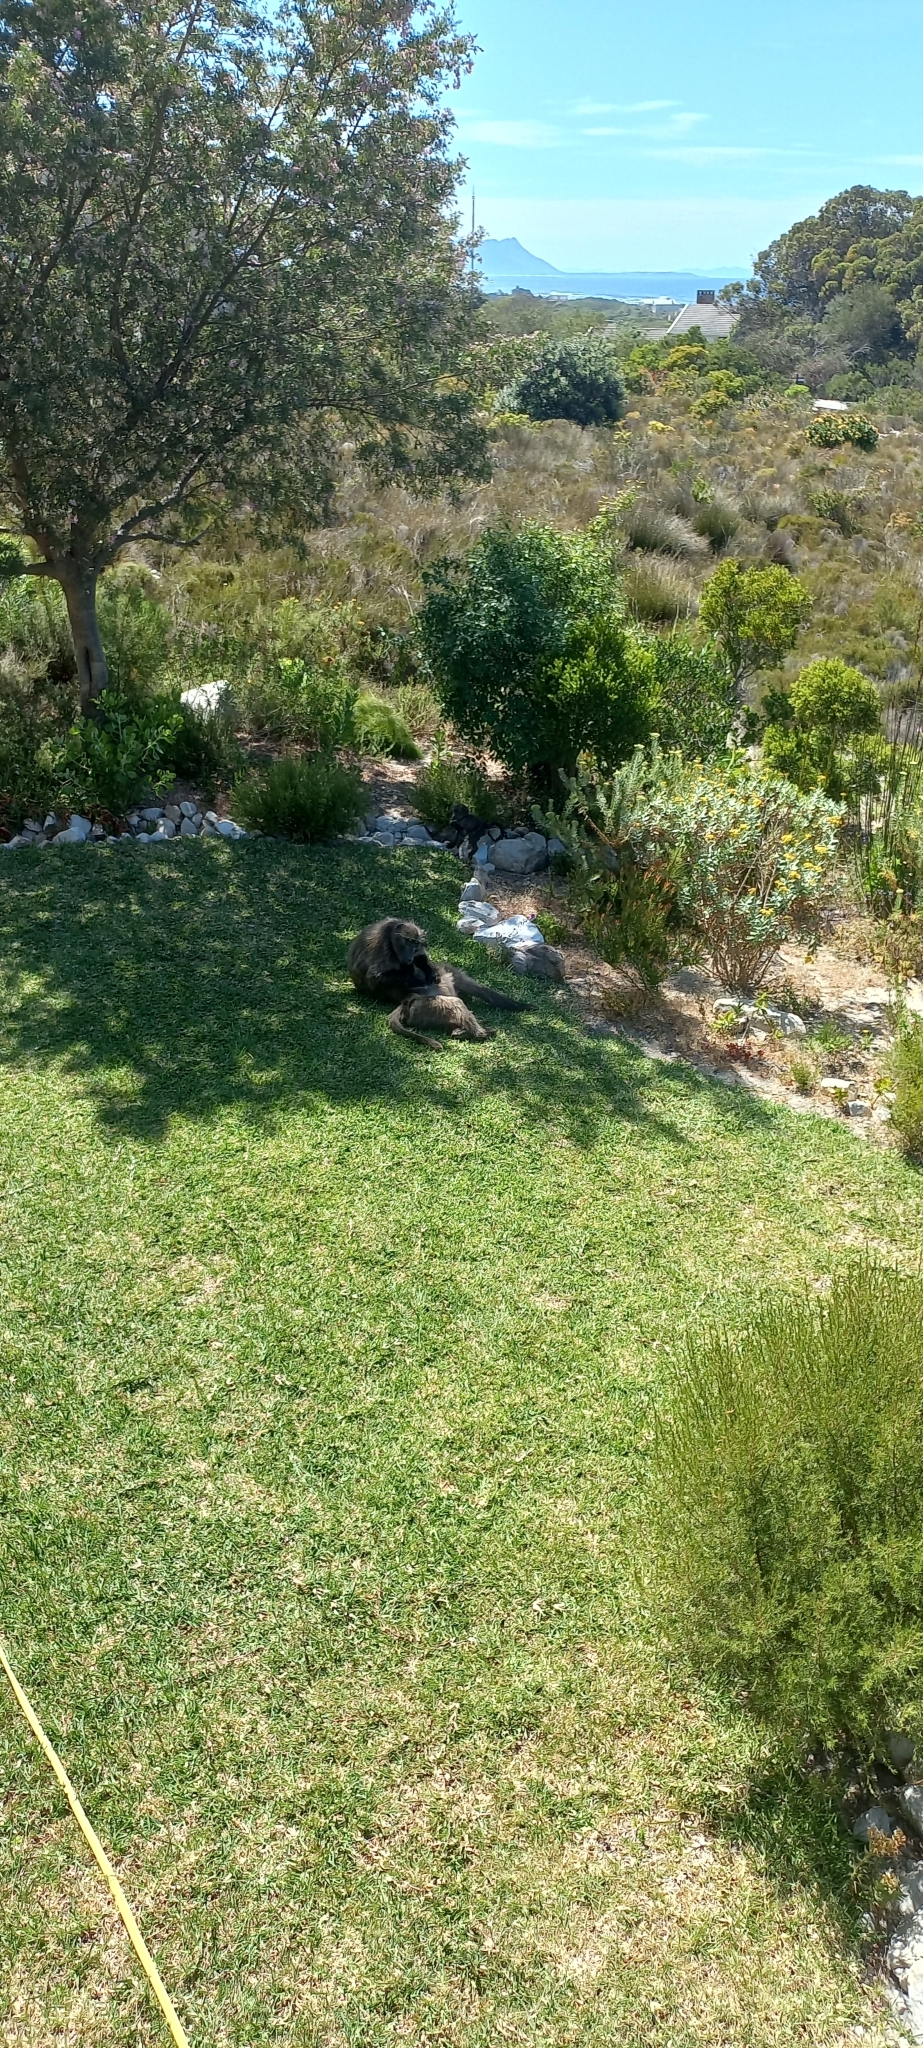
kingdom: Animalia
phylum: Chordata
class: Mammalia
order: Primates
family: Cercopithecidae
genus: Papio
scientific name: Papio ursinus
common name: Chacma baboon
